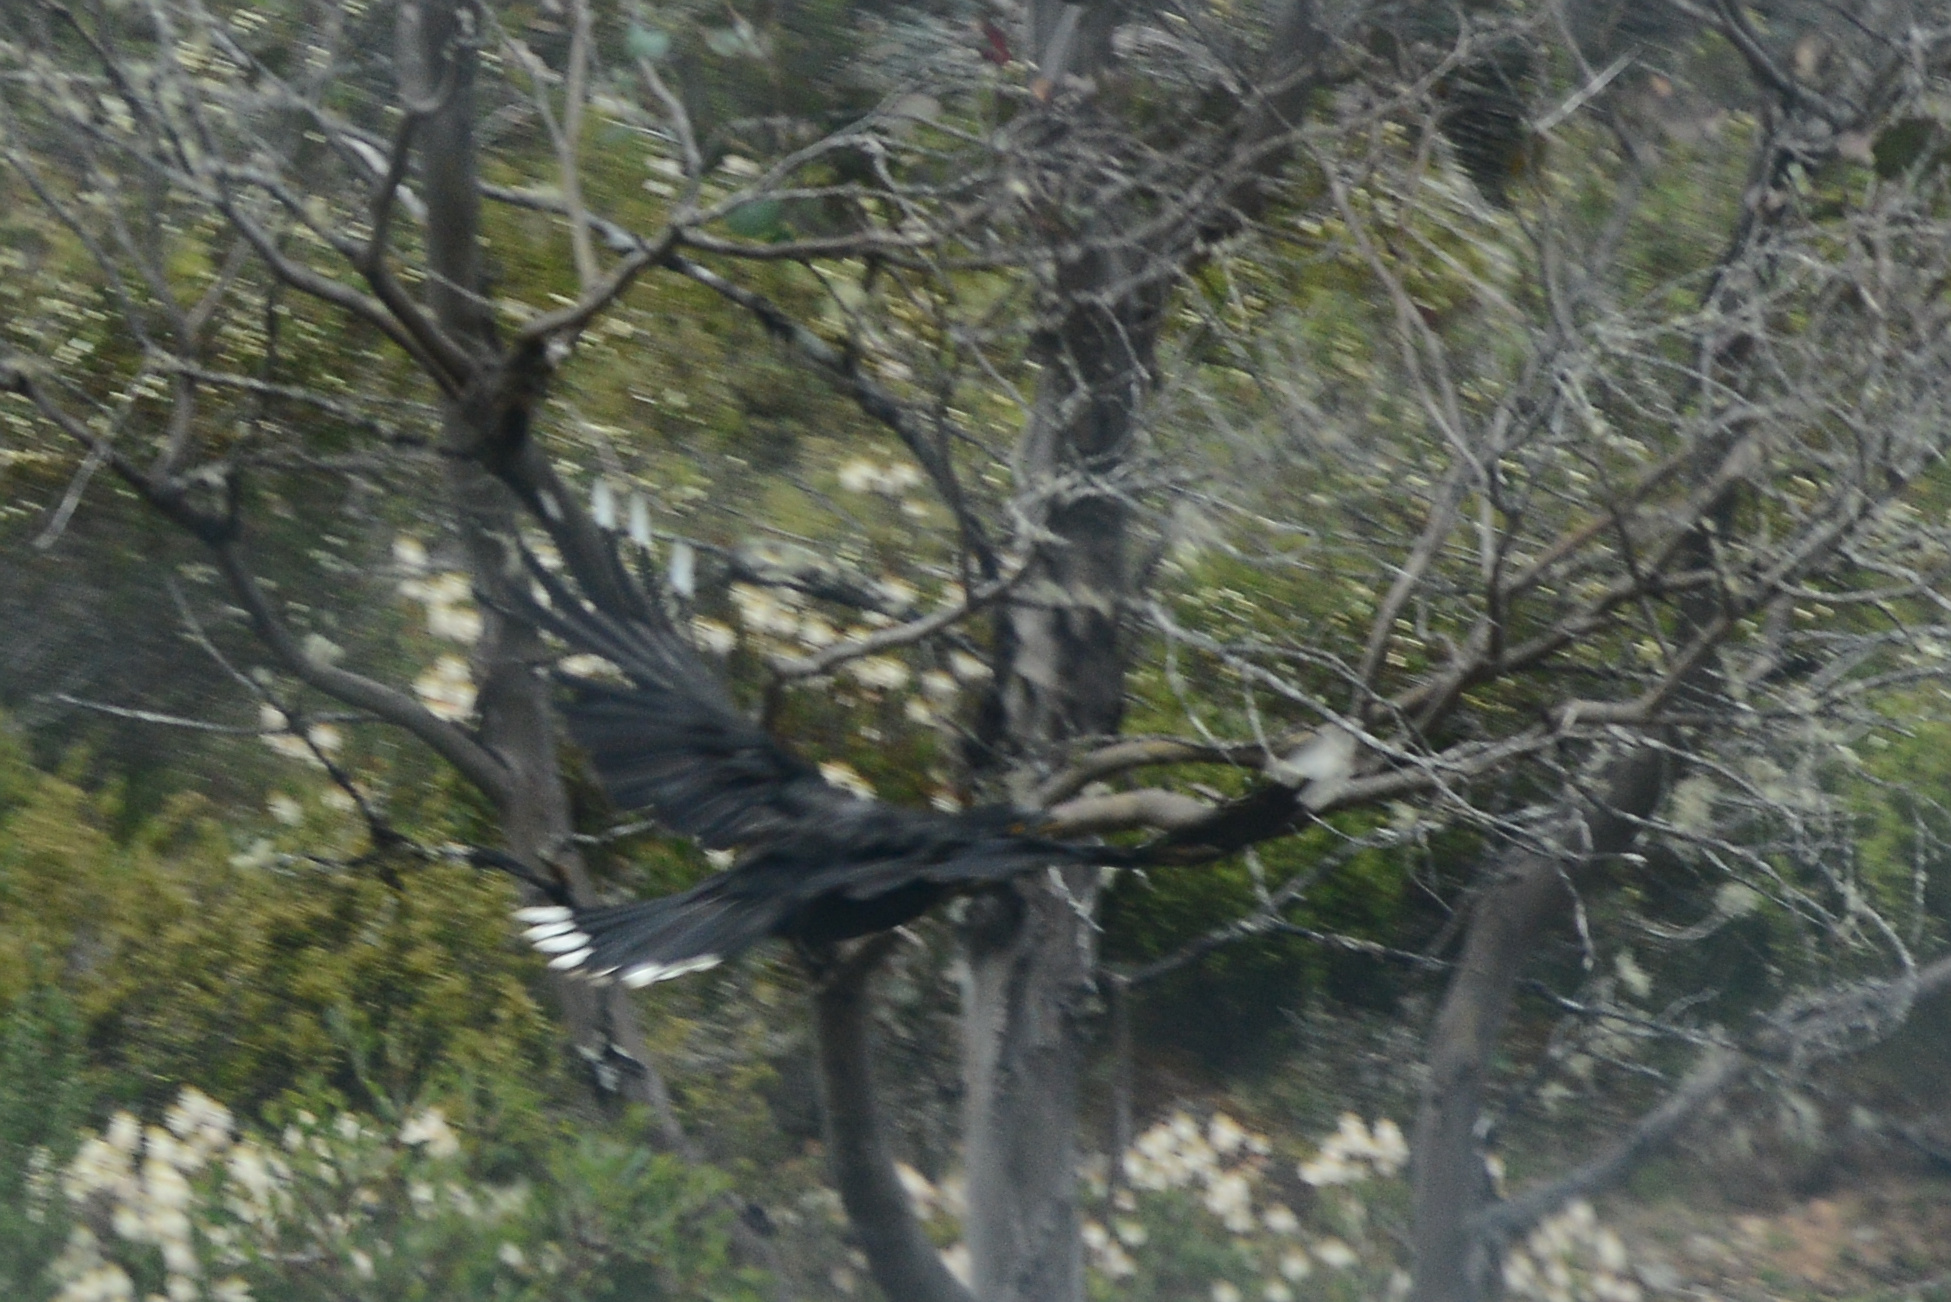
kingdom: Animalia
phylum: Chordata
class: Aves
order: Passeriformes
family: Cracticidae
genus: Strepera
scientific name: Strepera fuliginosa
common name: Black currawong
